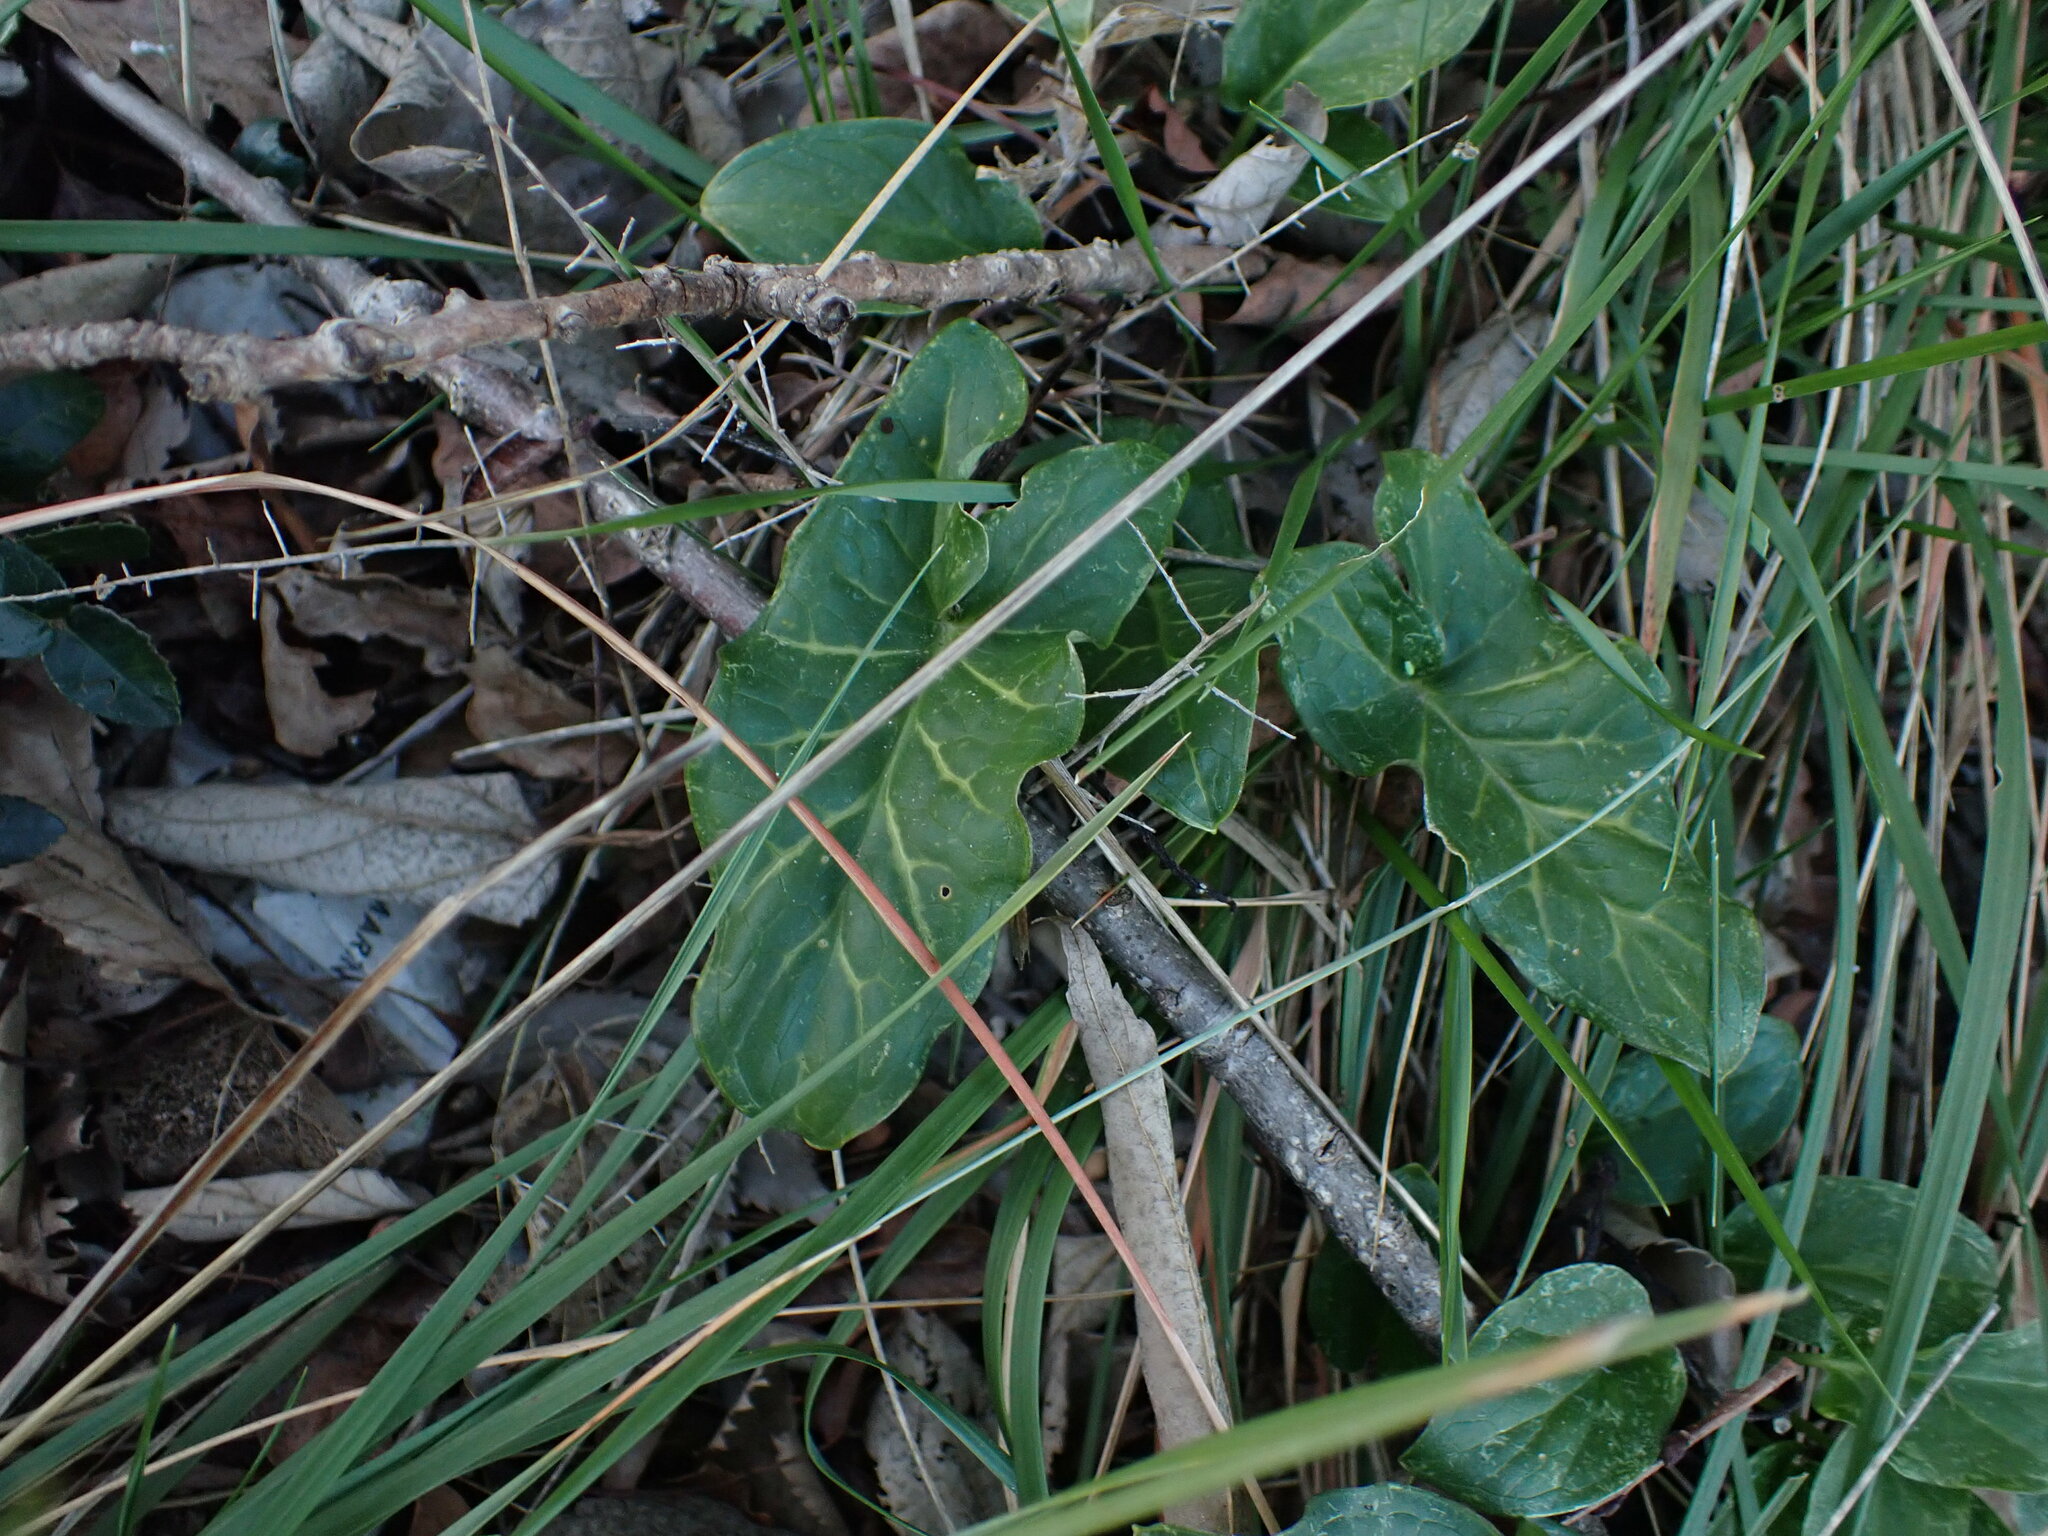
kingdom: Plantae
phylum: Tracheophyta
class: Liliopsida
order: Alismatales
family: Araceae
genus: Arum
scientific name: Arum italicum
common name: Italian lords-and-ladies
